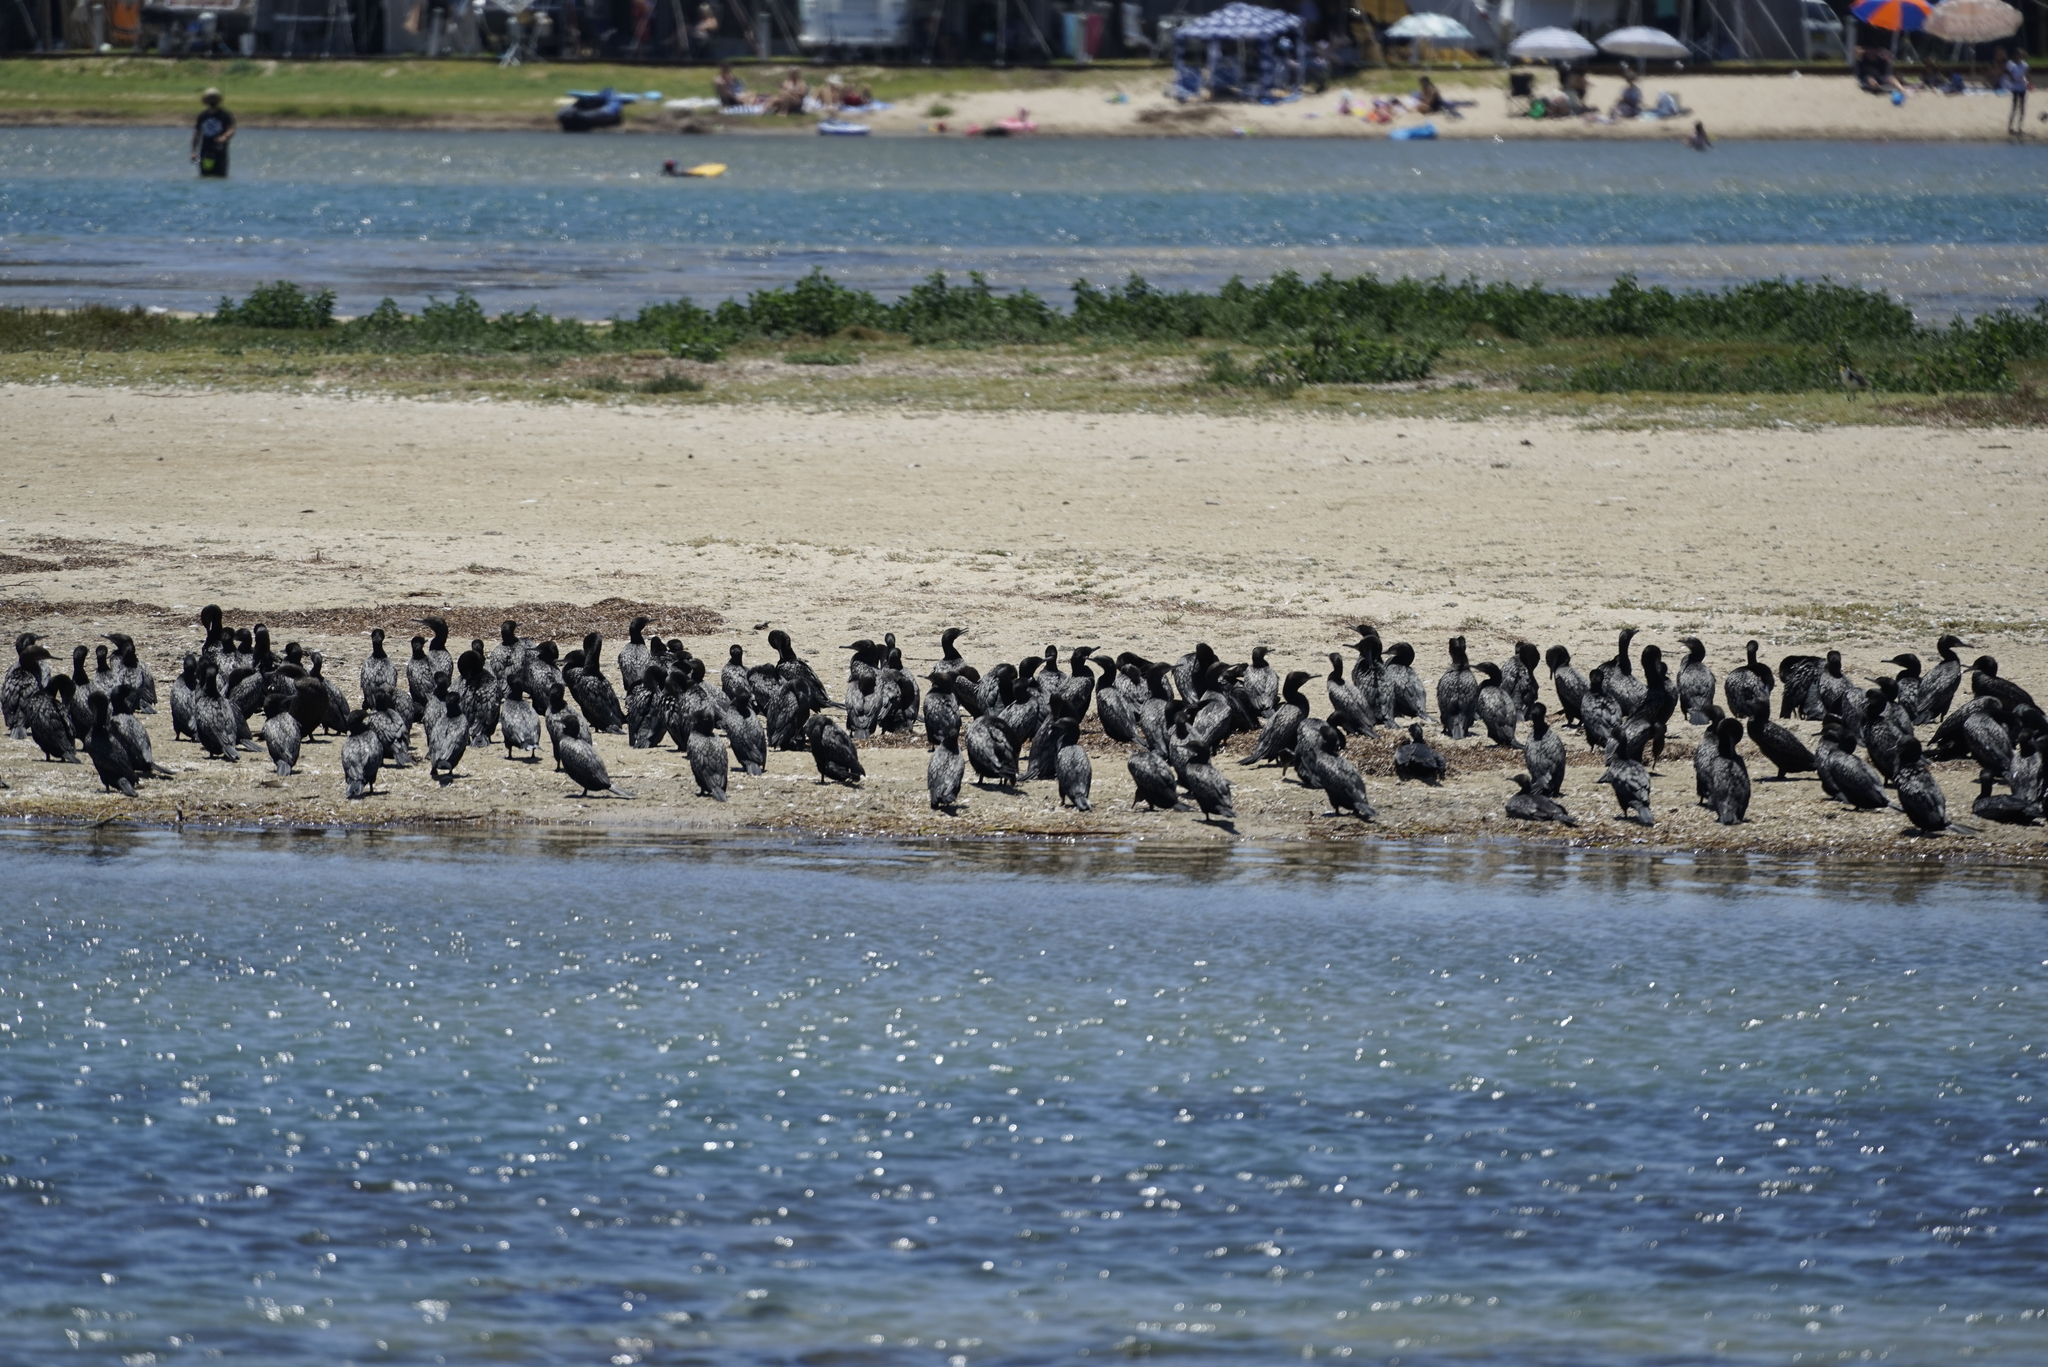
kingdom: Animalia
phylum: Chordata
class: Aves
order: Suliformes
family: Phalacrocoracidae
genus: Phalacrocorax
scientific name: Phalacrocorax sulcirostris
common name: Little black cormorant
